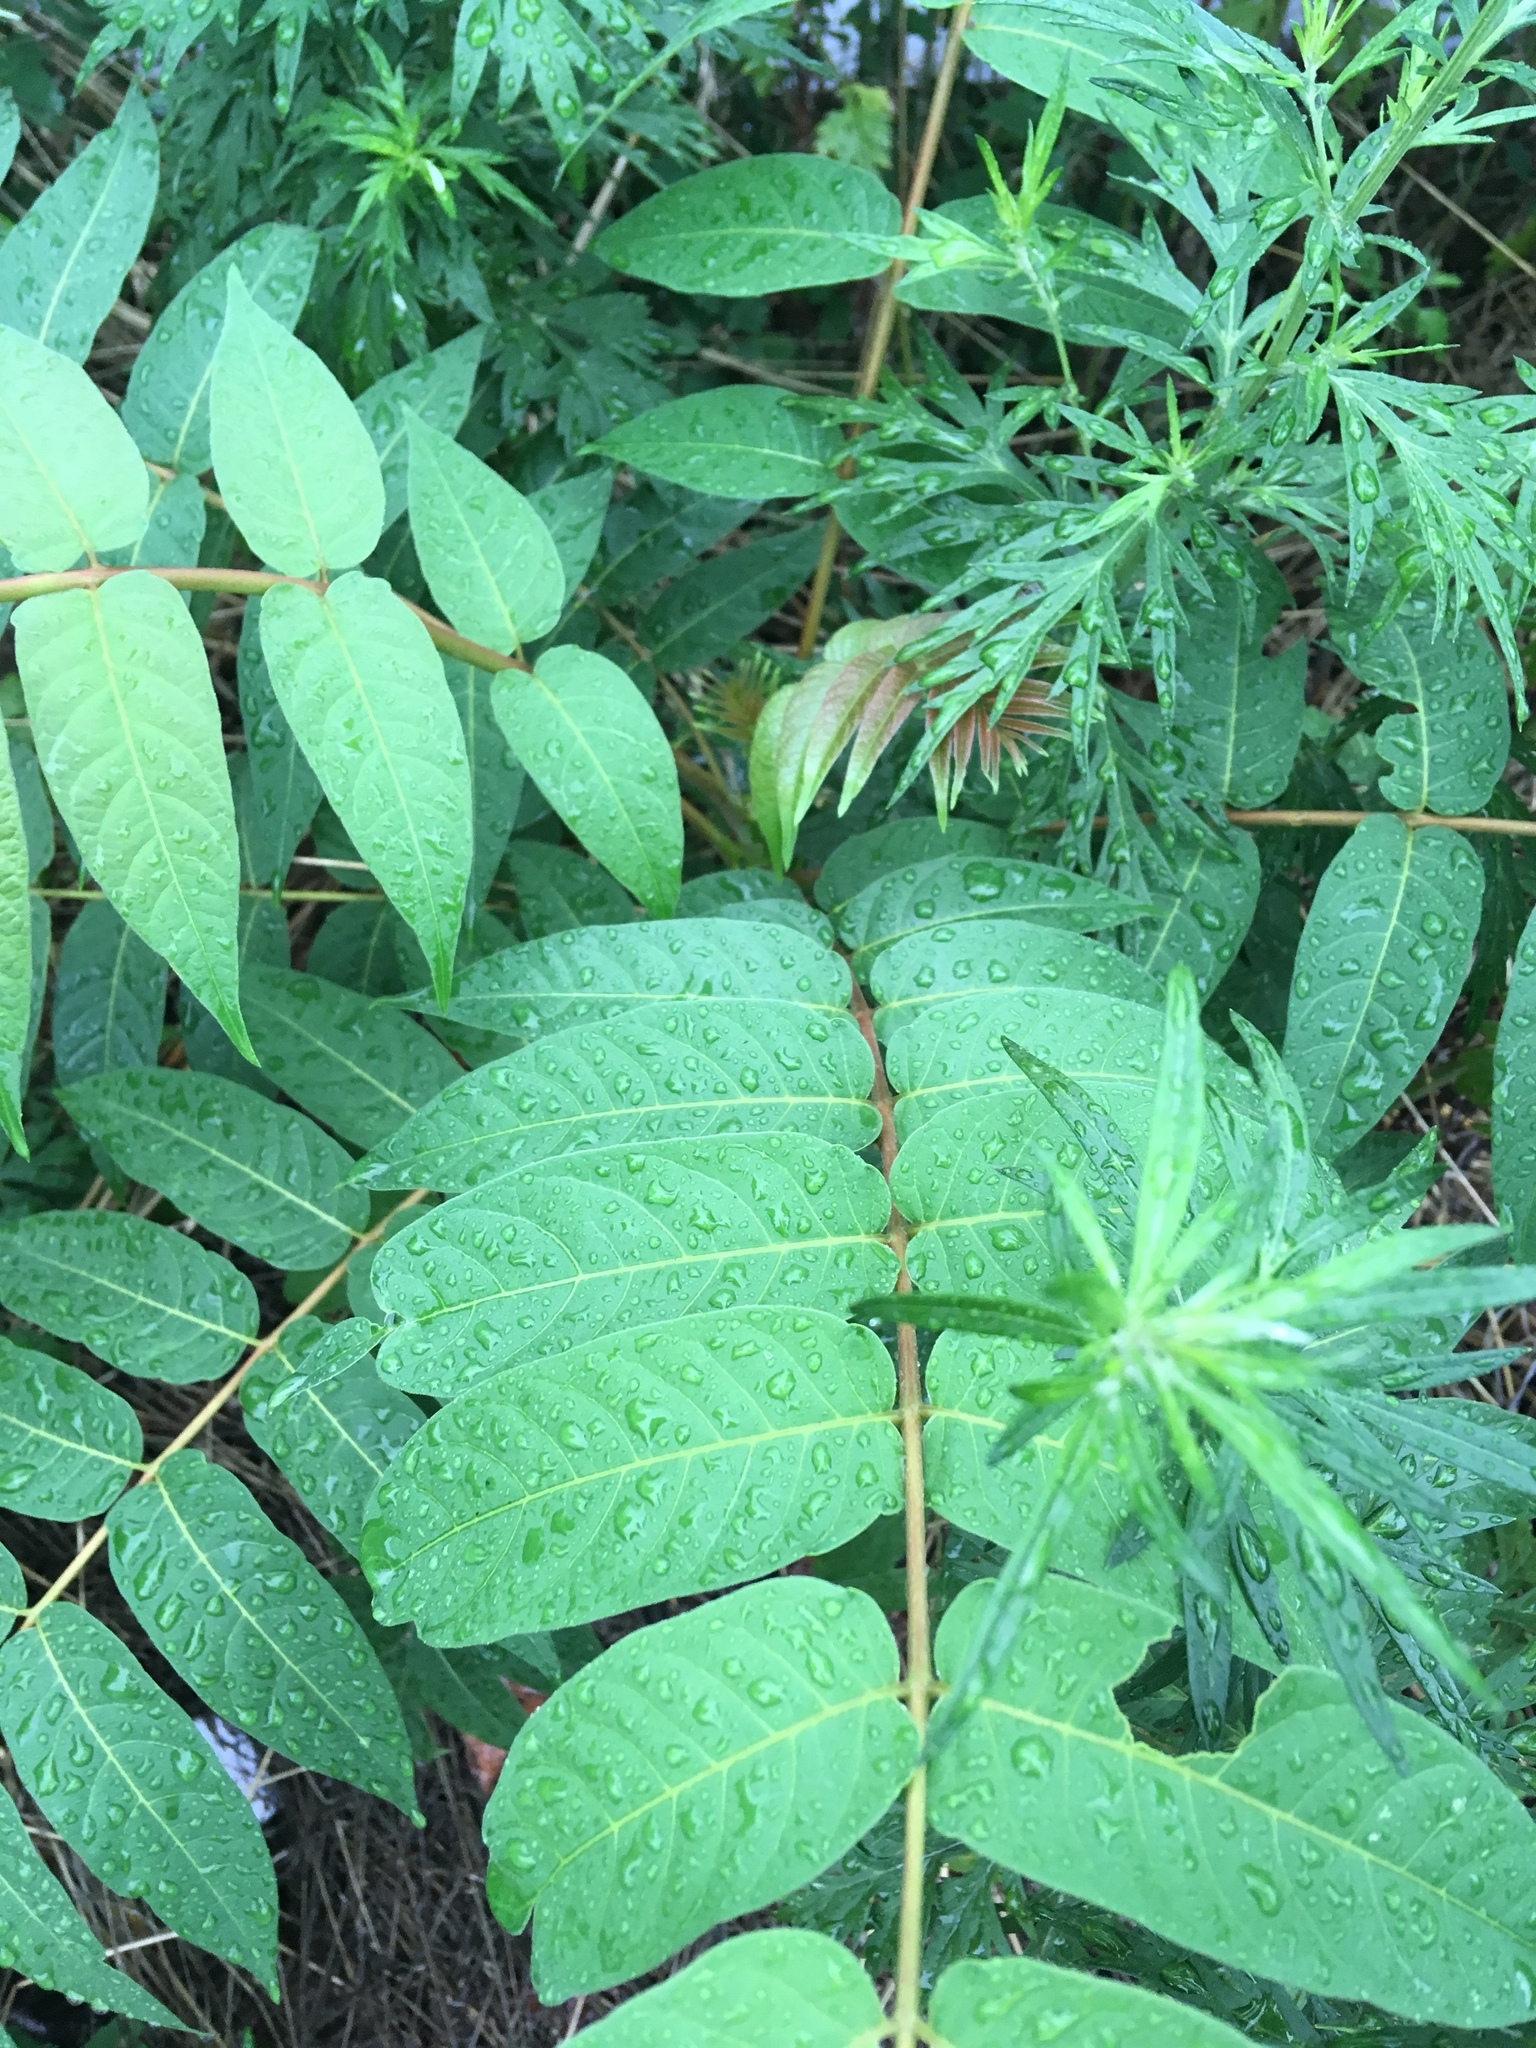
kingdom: Plantae
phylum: Tracheophyta
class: Magnoliopsida
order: Sapindales
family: Simaroubaceae
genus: Ailanthus
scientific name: Ailanthus altissima
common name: Tree-of-heaven
